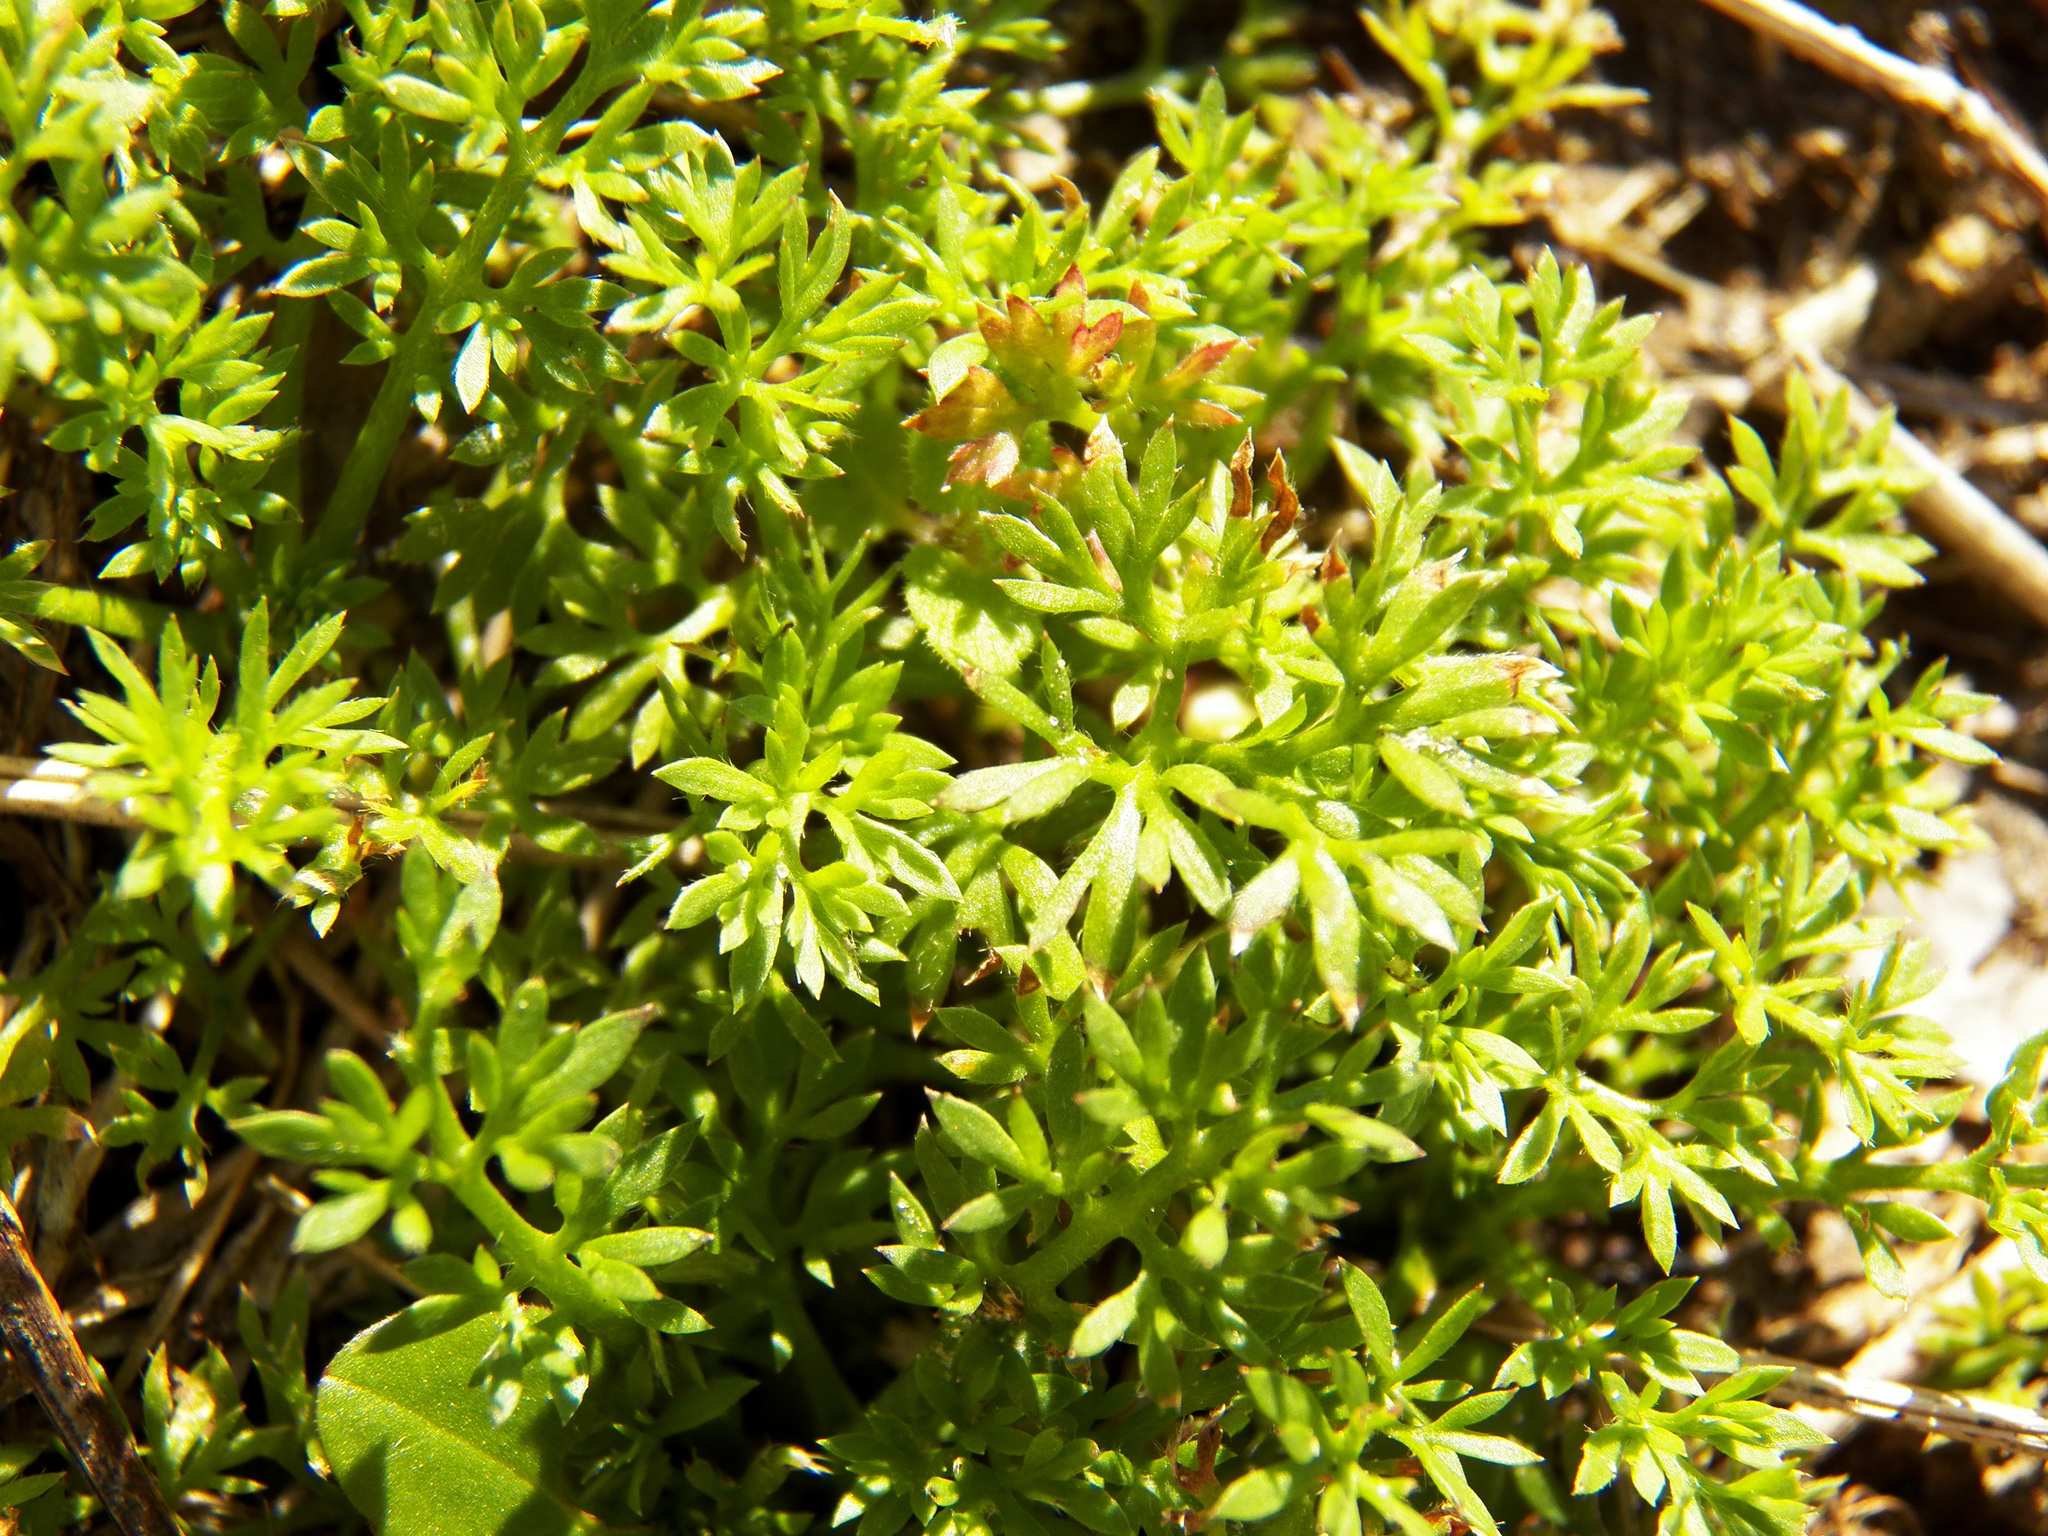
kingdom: Plantae
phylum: Tracheophyta
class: Magnoliopsida
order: Asterales
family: Asteraceae
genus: Soliva
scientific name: Soliva sessilis
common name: Field burrweed
